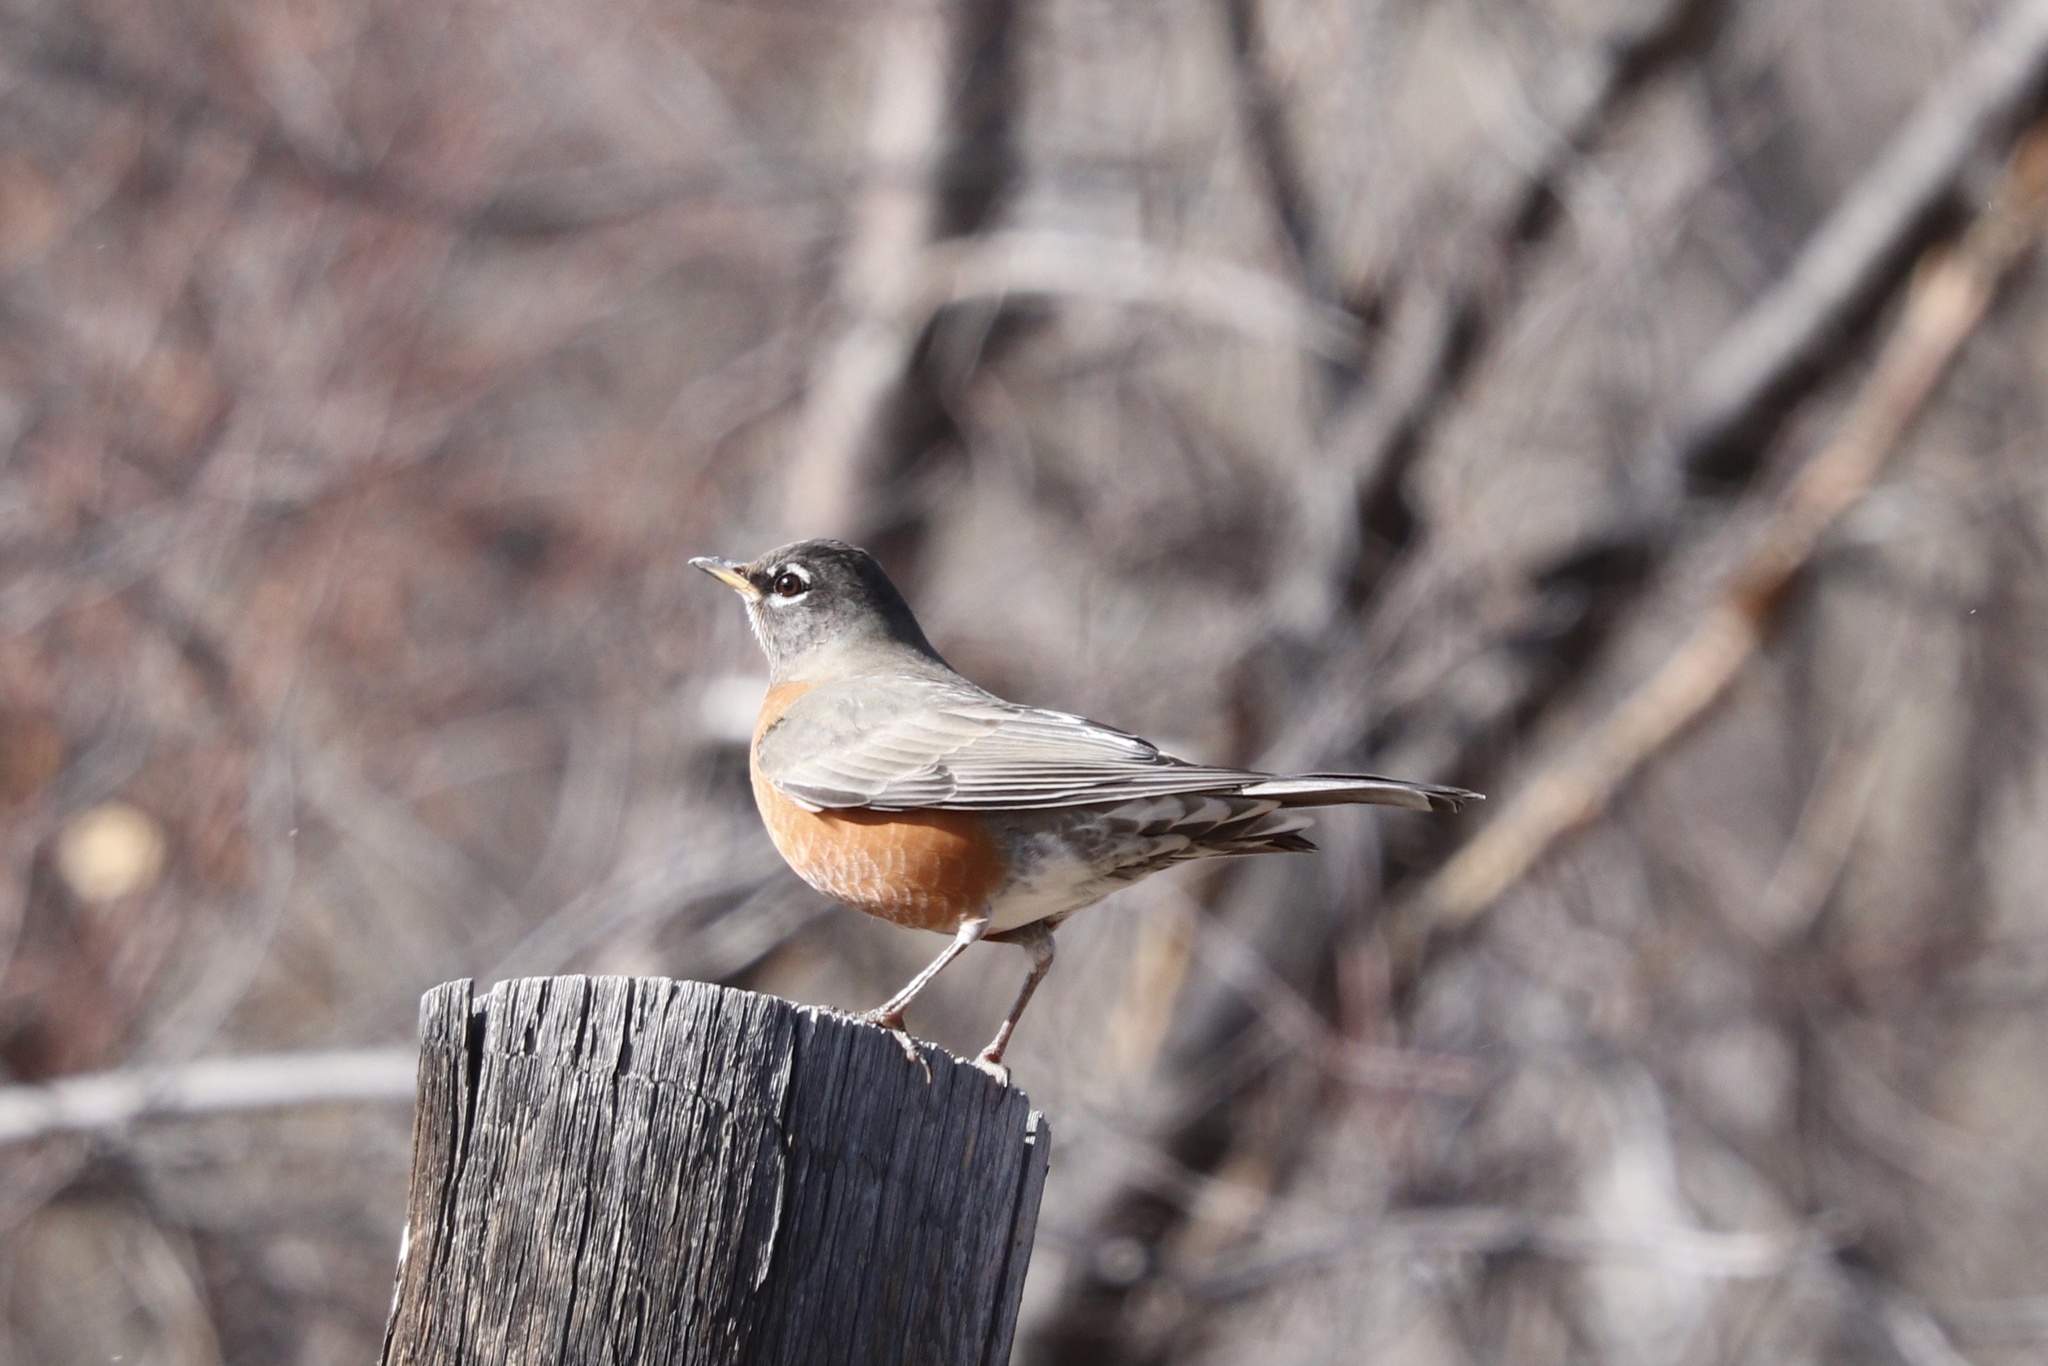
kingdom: Animalia
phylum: Chordata
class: Aves
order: Passeriformes
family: Turdidae
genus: Turdus
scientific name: Turdus migratorius
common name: American robin
